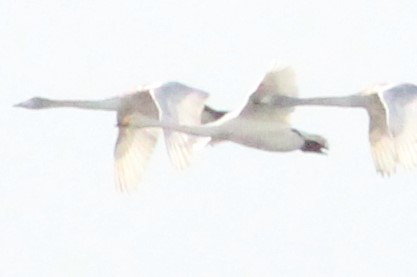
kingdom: Animalia
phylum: Chordata
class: Aves
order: Anseriformes
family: Anatidae
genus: Cygnus
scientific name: Cygnus cygnus
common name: Whooper swan
